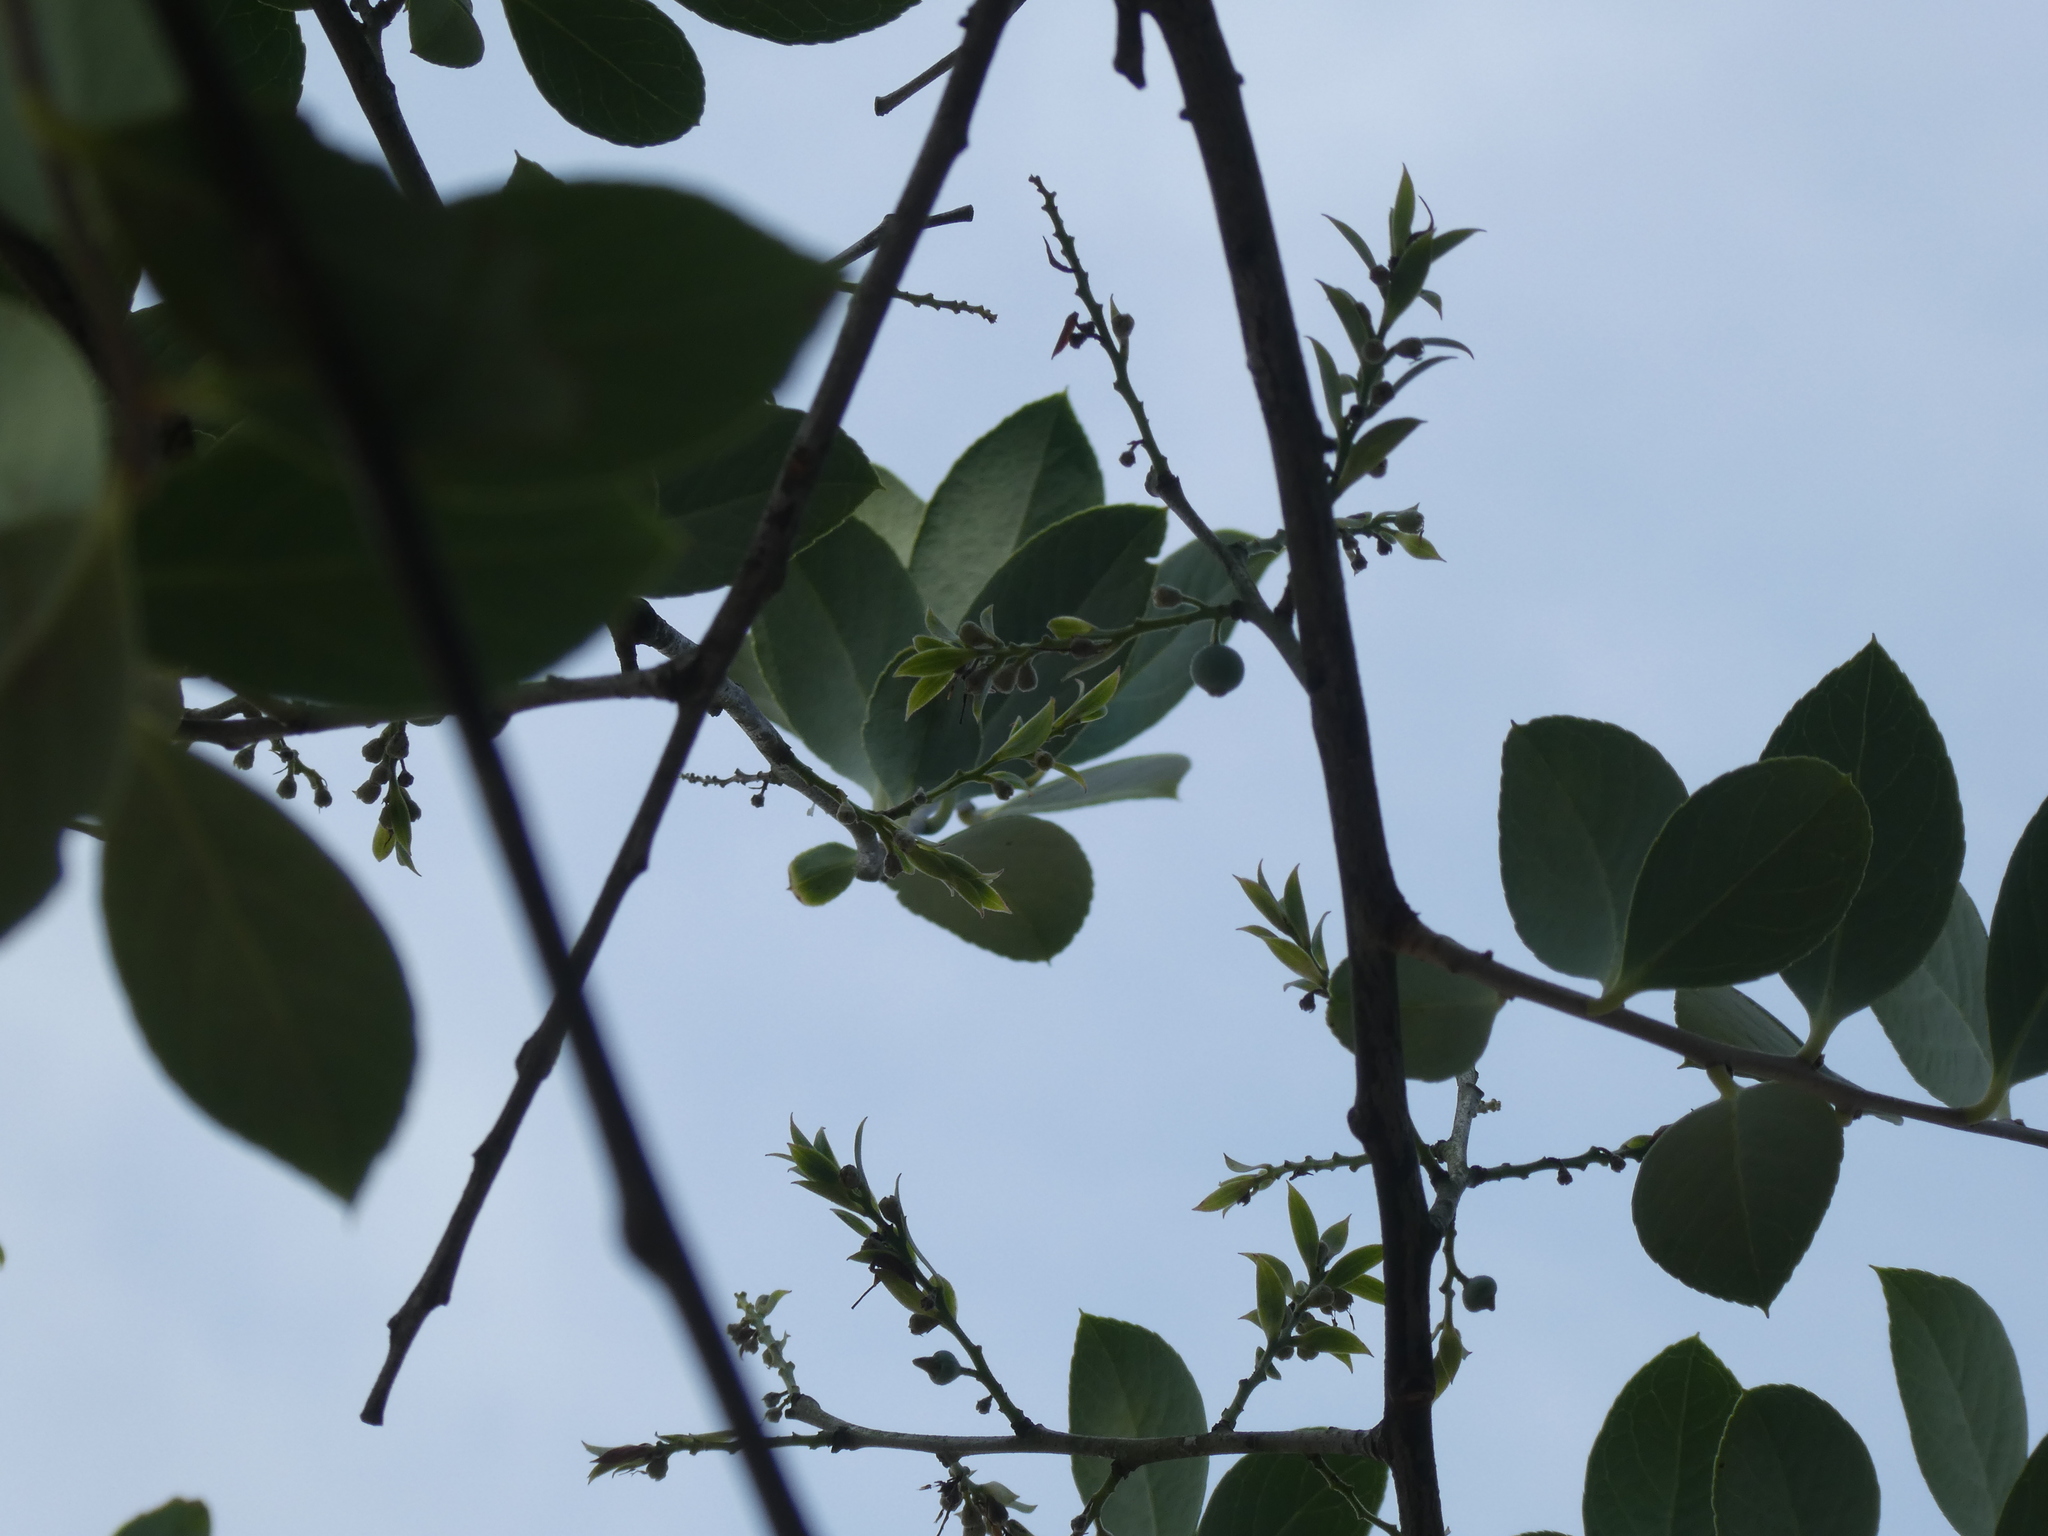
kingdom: Plantae
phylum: Tracheophyta
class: Magnoliopsida
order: Ericales
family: Ericaceae
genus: Vaccinium
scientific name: Vaccinium bracteatum
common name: Sea bilberry
